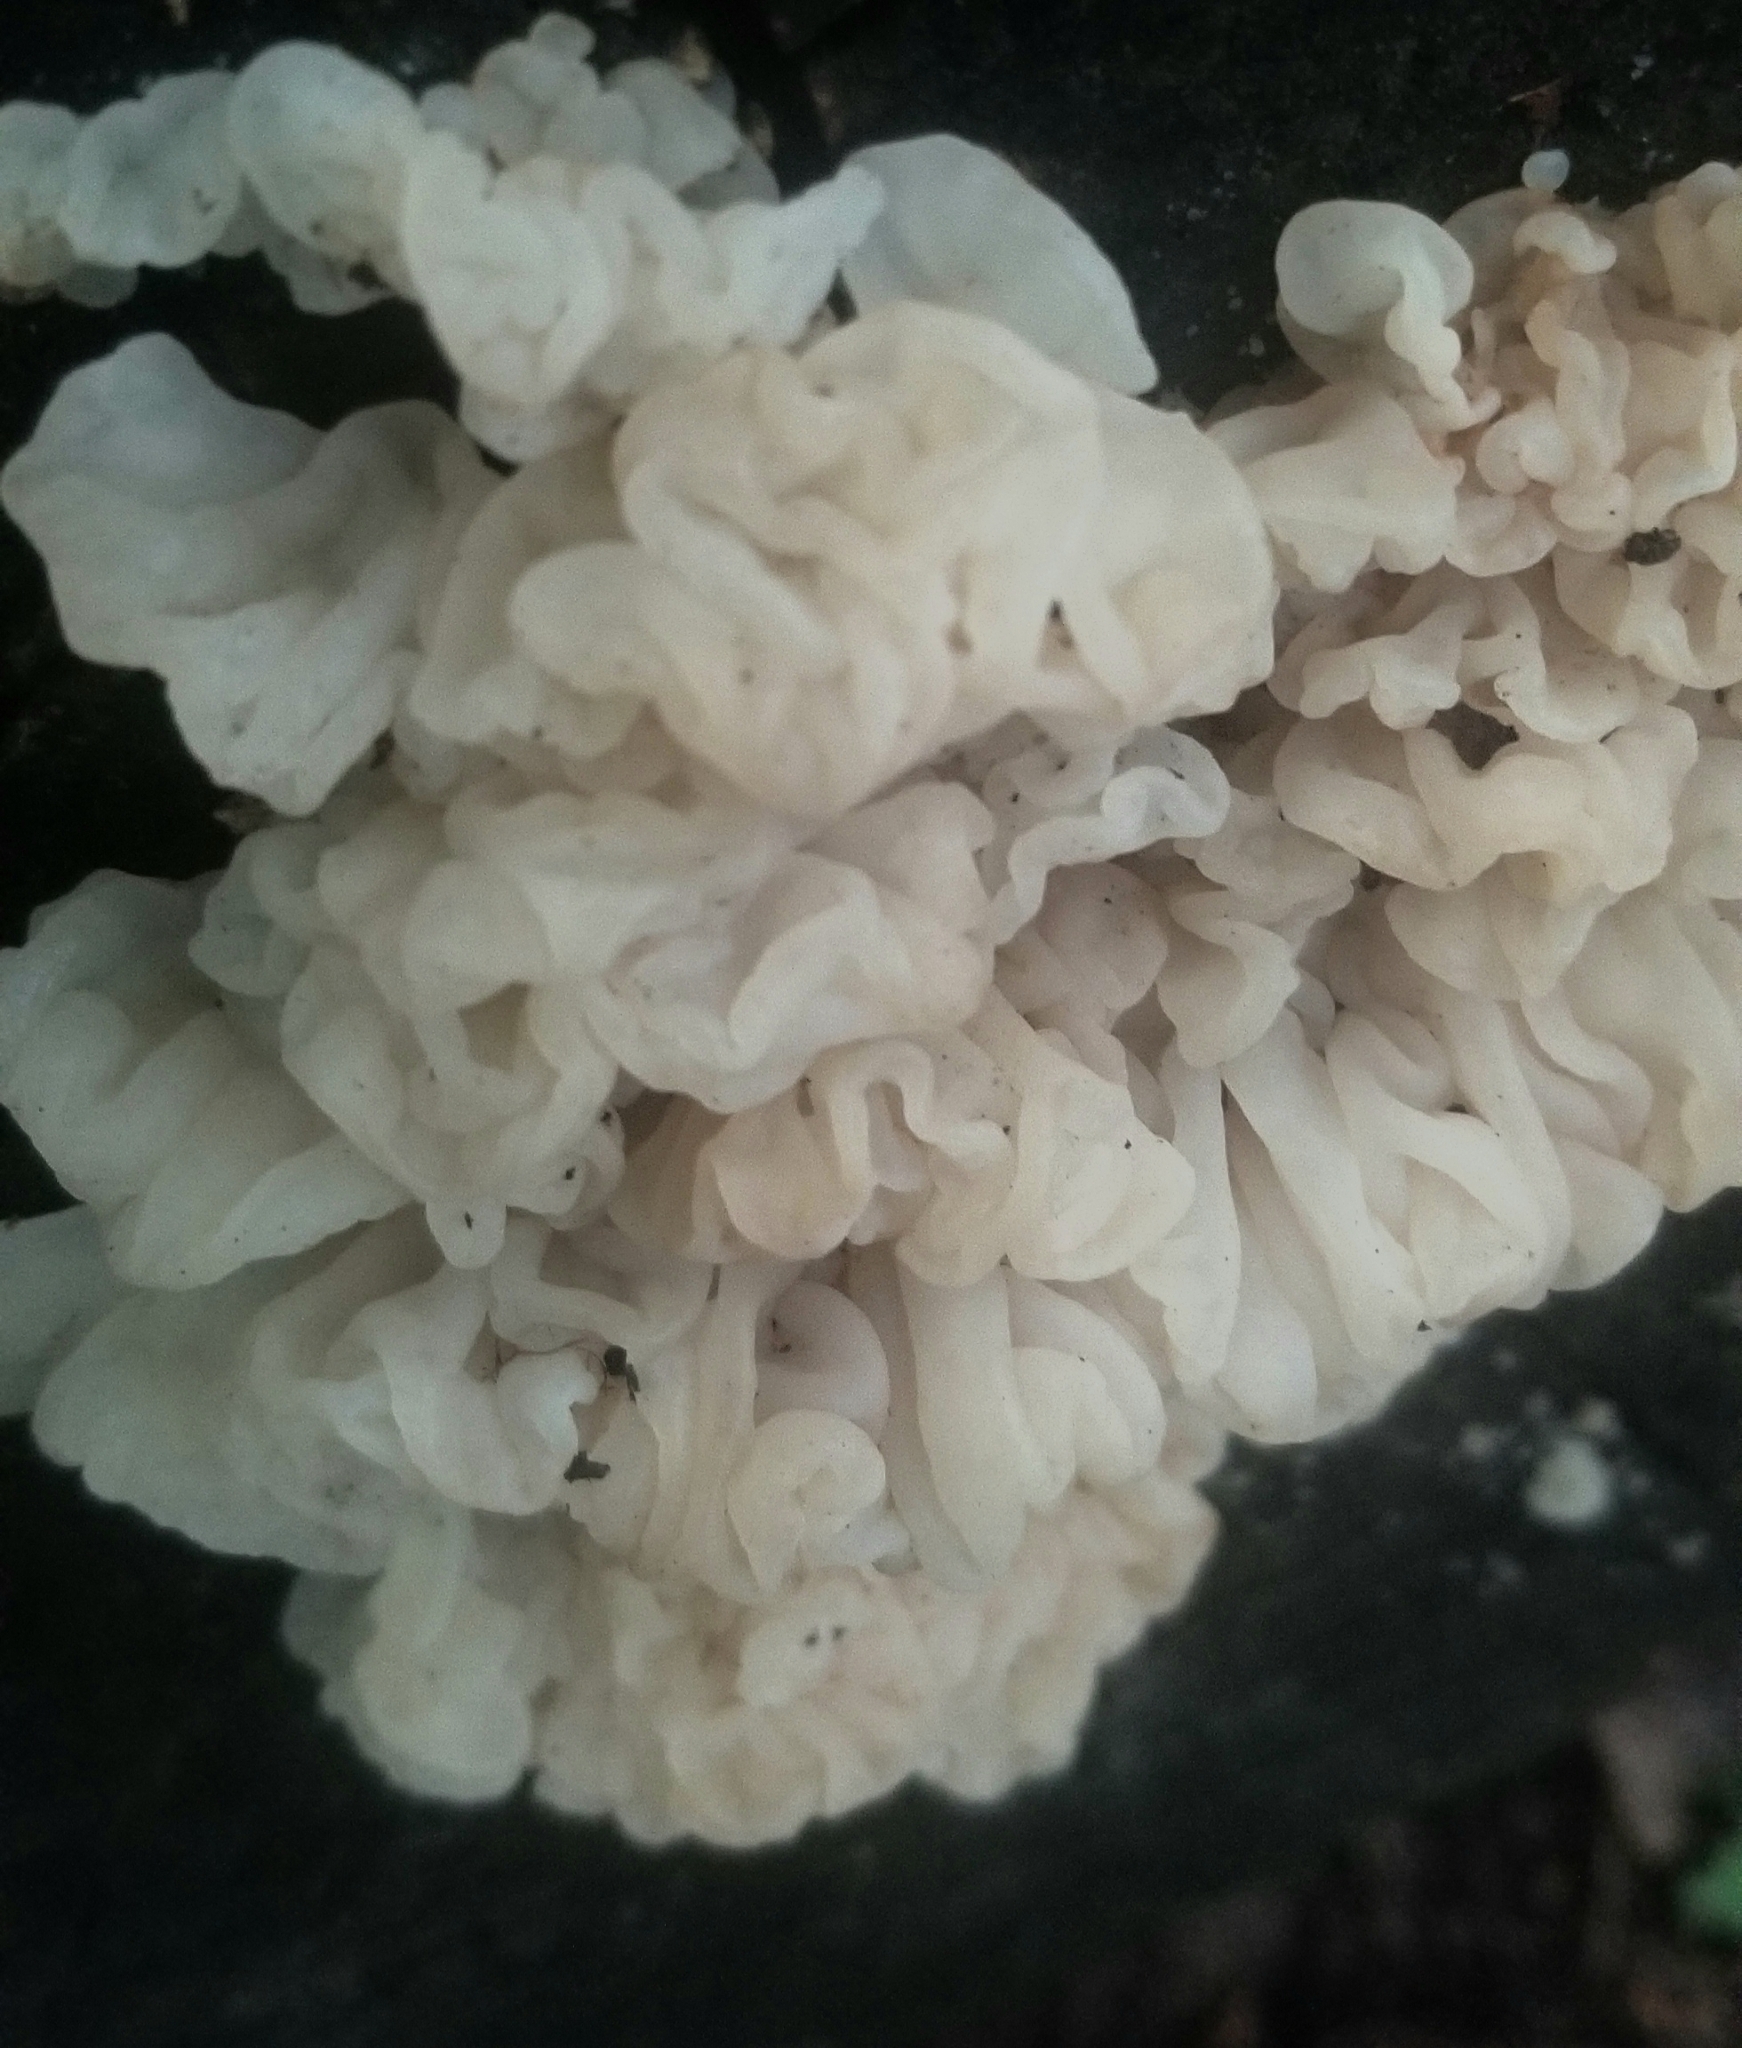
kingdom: Fungi
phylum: Basidiomycota
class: Agaricomycetes
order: Auriculariales
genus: Ductifera
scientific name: Ductifera pululahuana
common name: White jelly fungus
